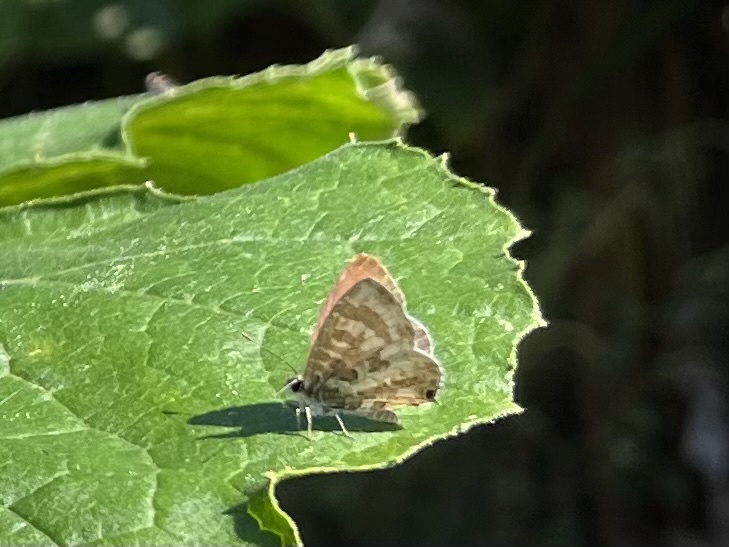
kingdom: Animalia
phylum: Arthropoda
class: Insecta
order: Lepidoptera
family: Lycaenidae
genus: Cacyreus
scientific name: Cacyreus lingeus
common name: Bush bronze
